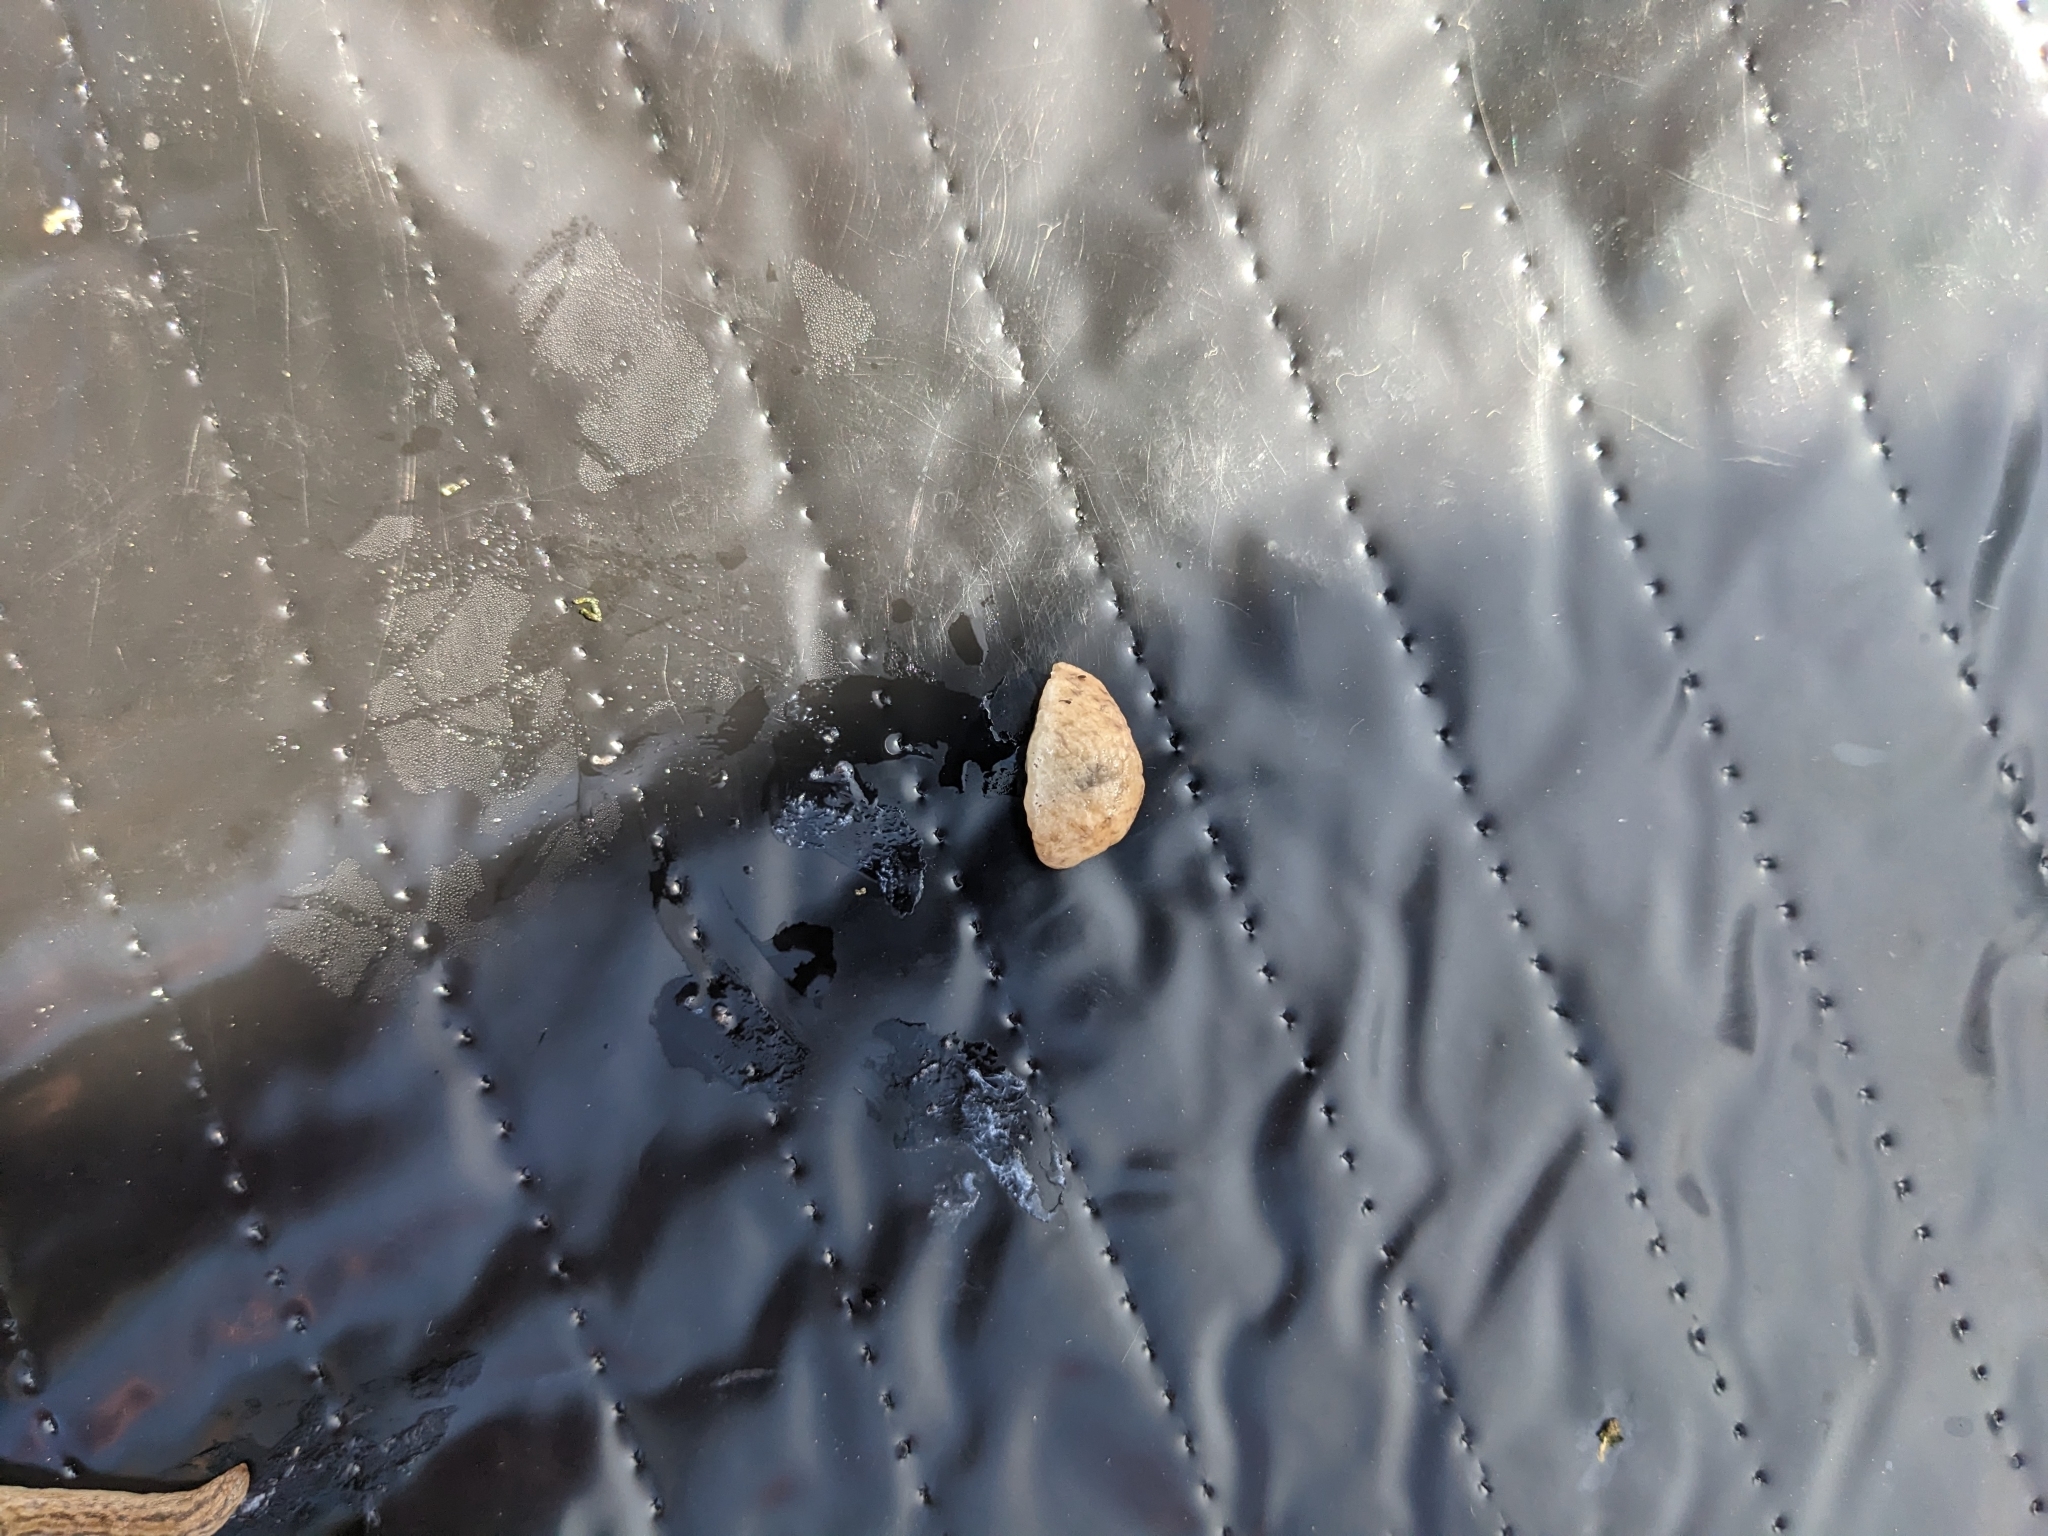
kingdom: Animalia
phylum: Mollusca
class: Gastropoda
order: Stylommatophora
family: Agriolimacidae
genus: Deroceras
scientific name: Deroceras reticulatum
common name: Gray field slug
